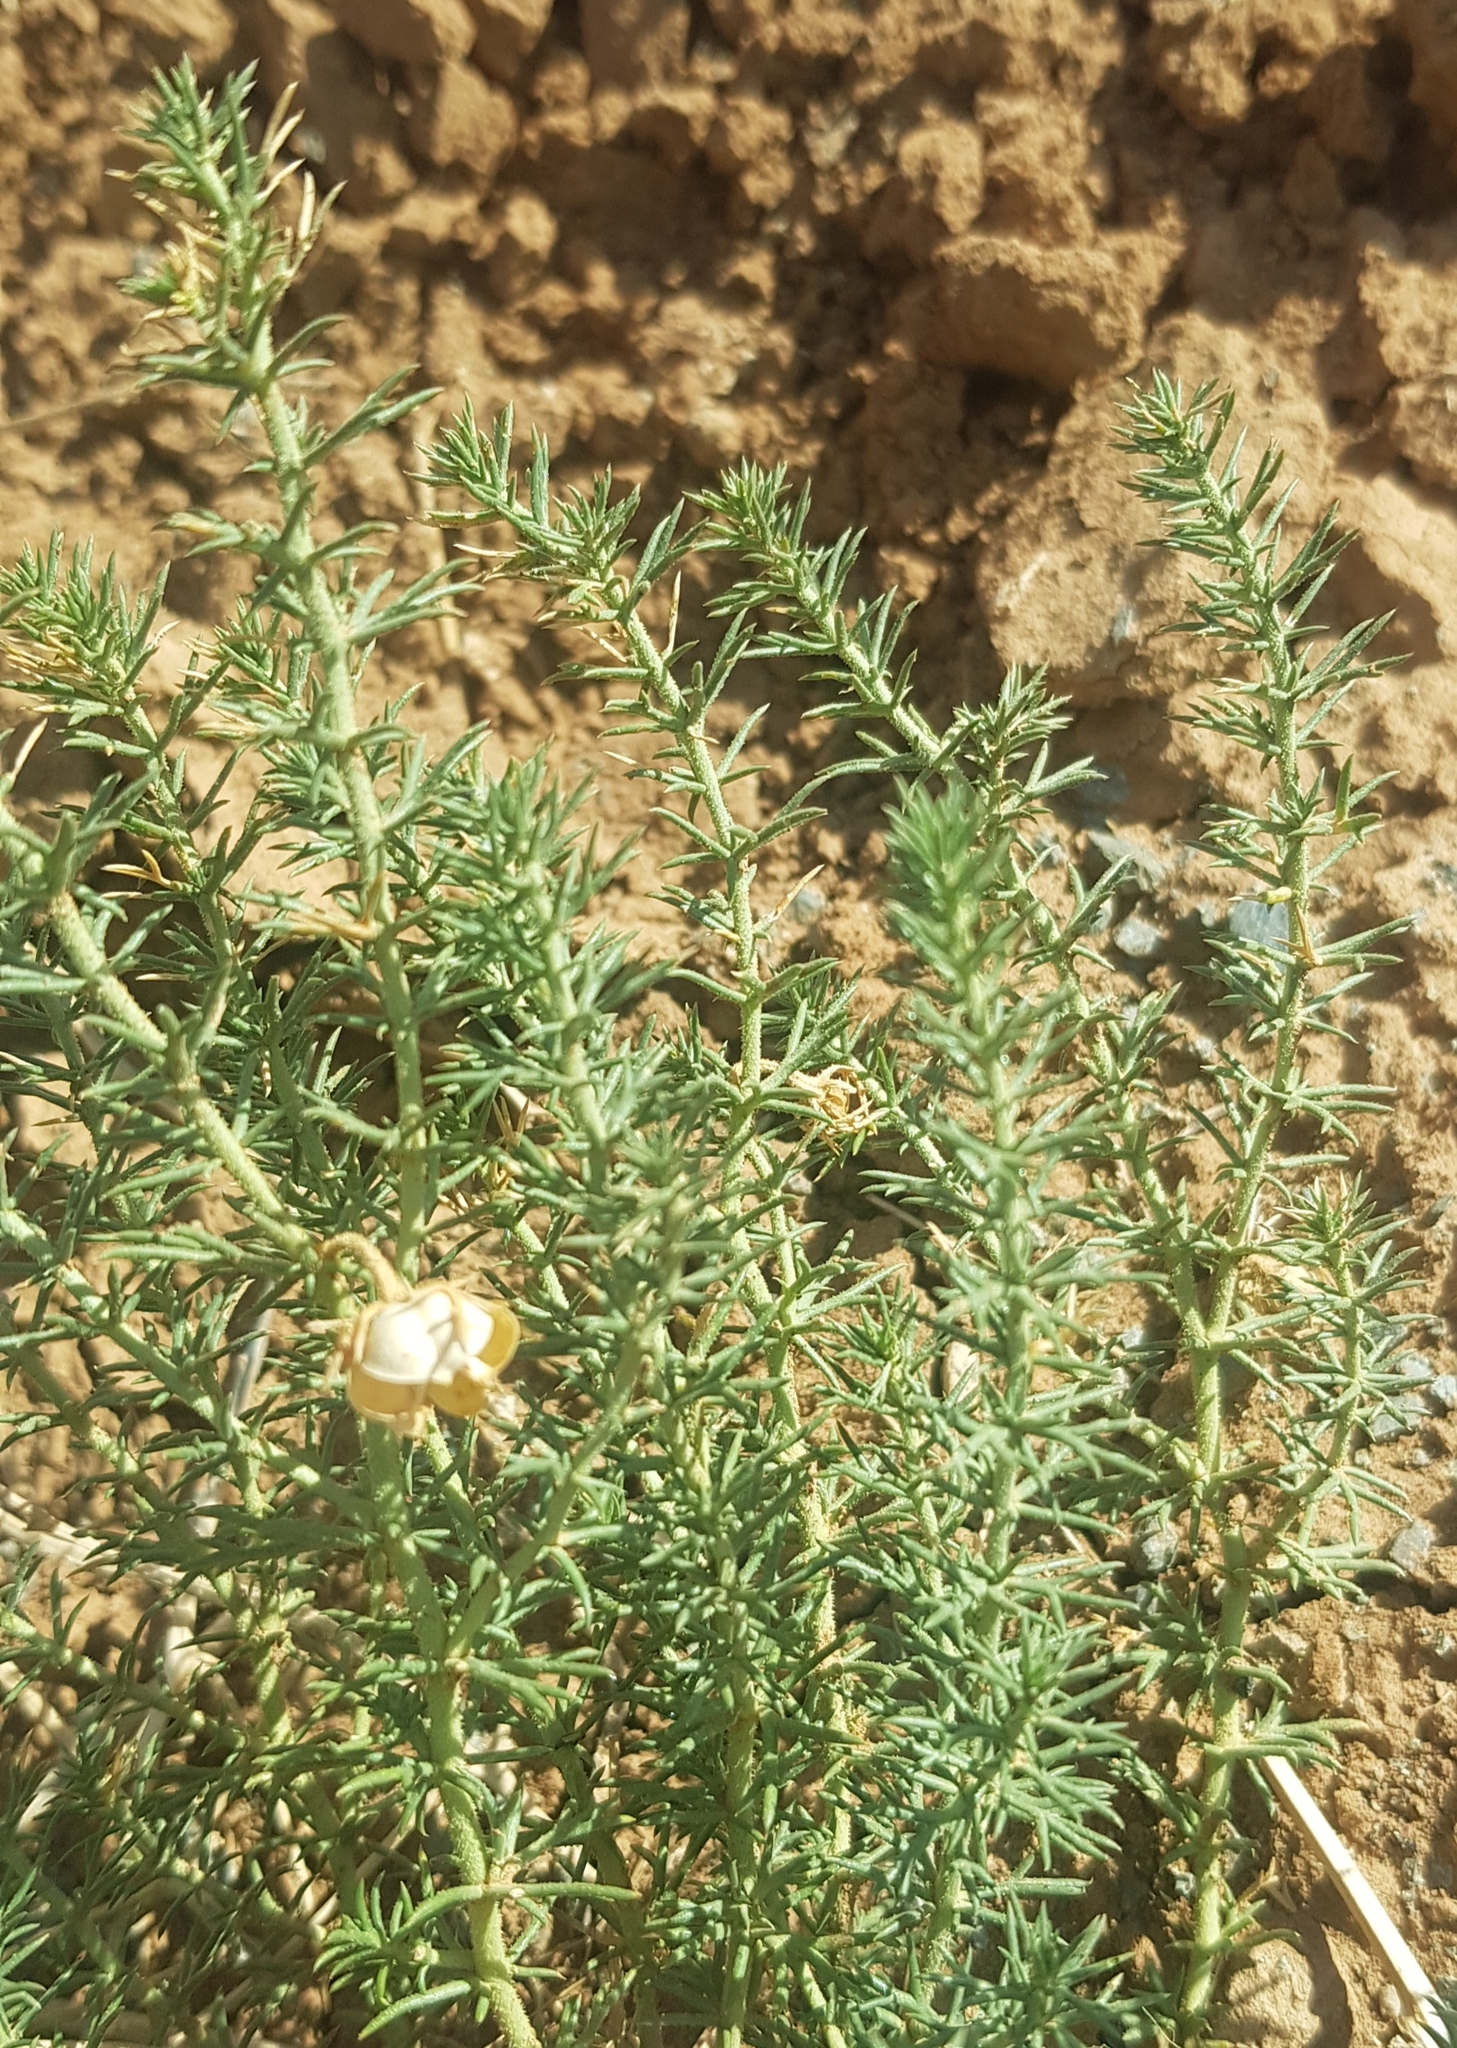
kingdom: Plantae
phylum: Tracheophyta
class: Magnoliopsida
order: Sapindales
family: Tetradiclidaceae
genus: Peganum
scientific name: Peganum harmala
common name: Harmal peganum
